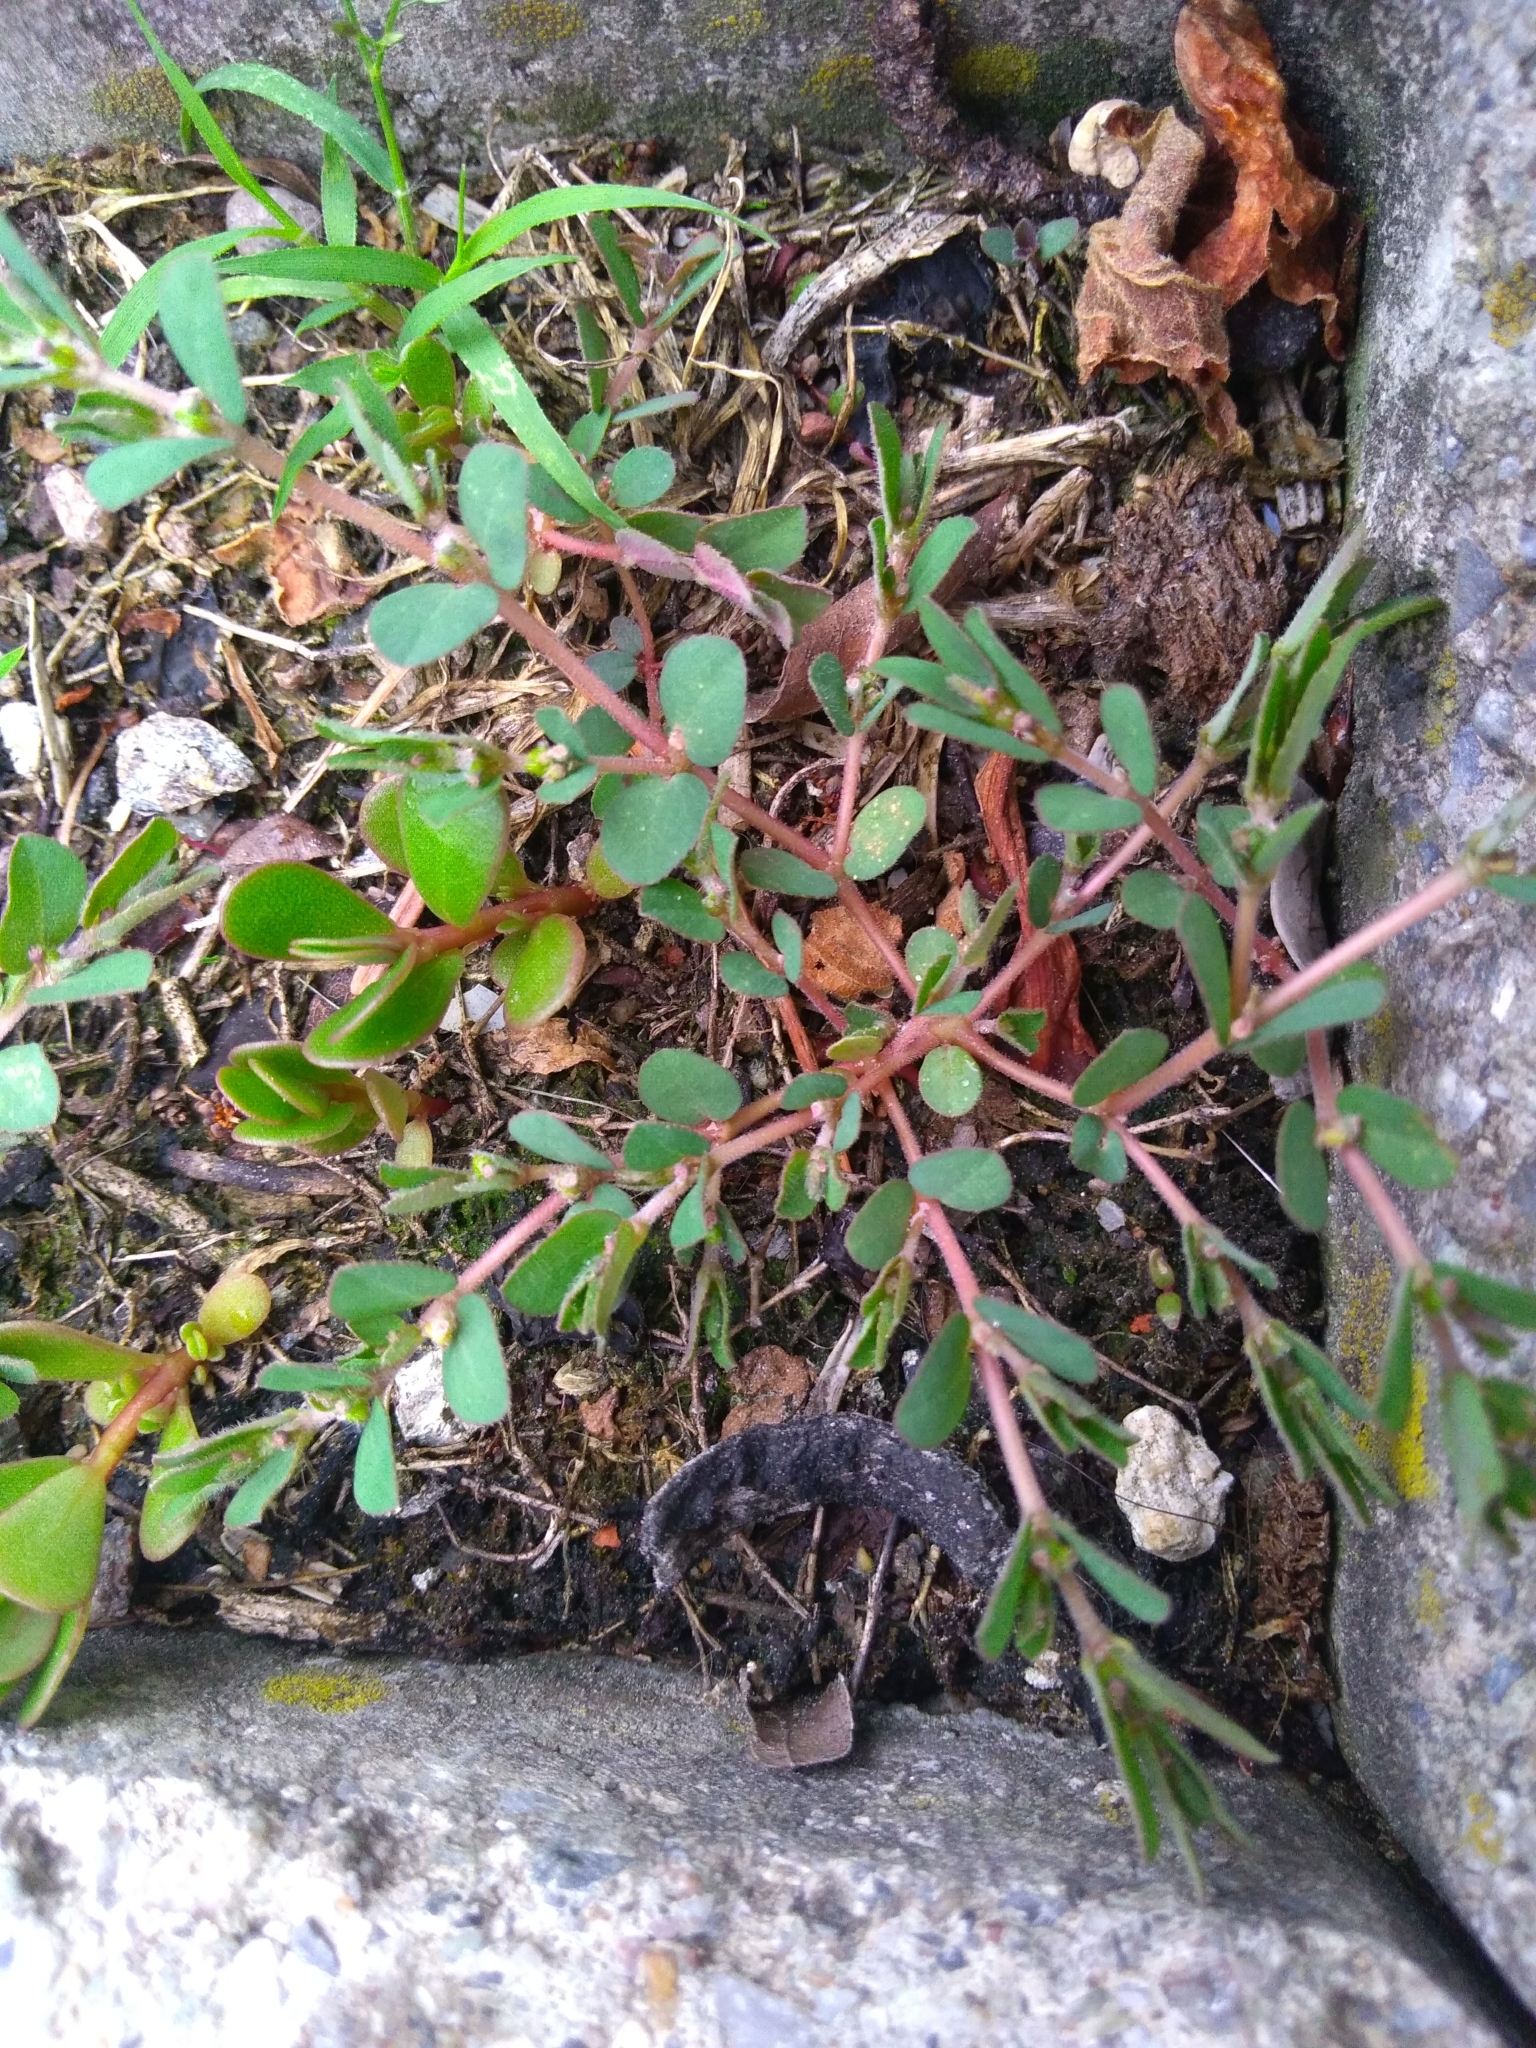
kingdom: Plantae
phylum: Tracheophyta
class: Magnoliopsida
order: Malpighiales
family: Euphorbiaceae
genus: Euphorbia
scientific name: Euphorbia prostrata
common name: Prostrate sandmat
